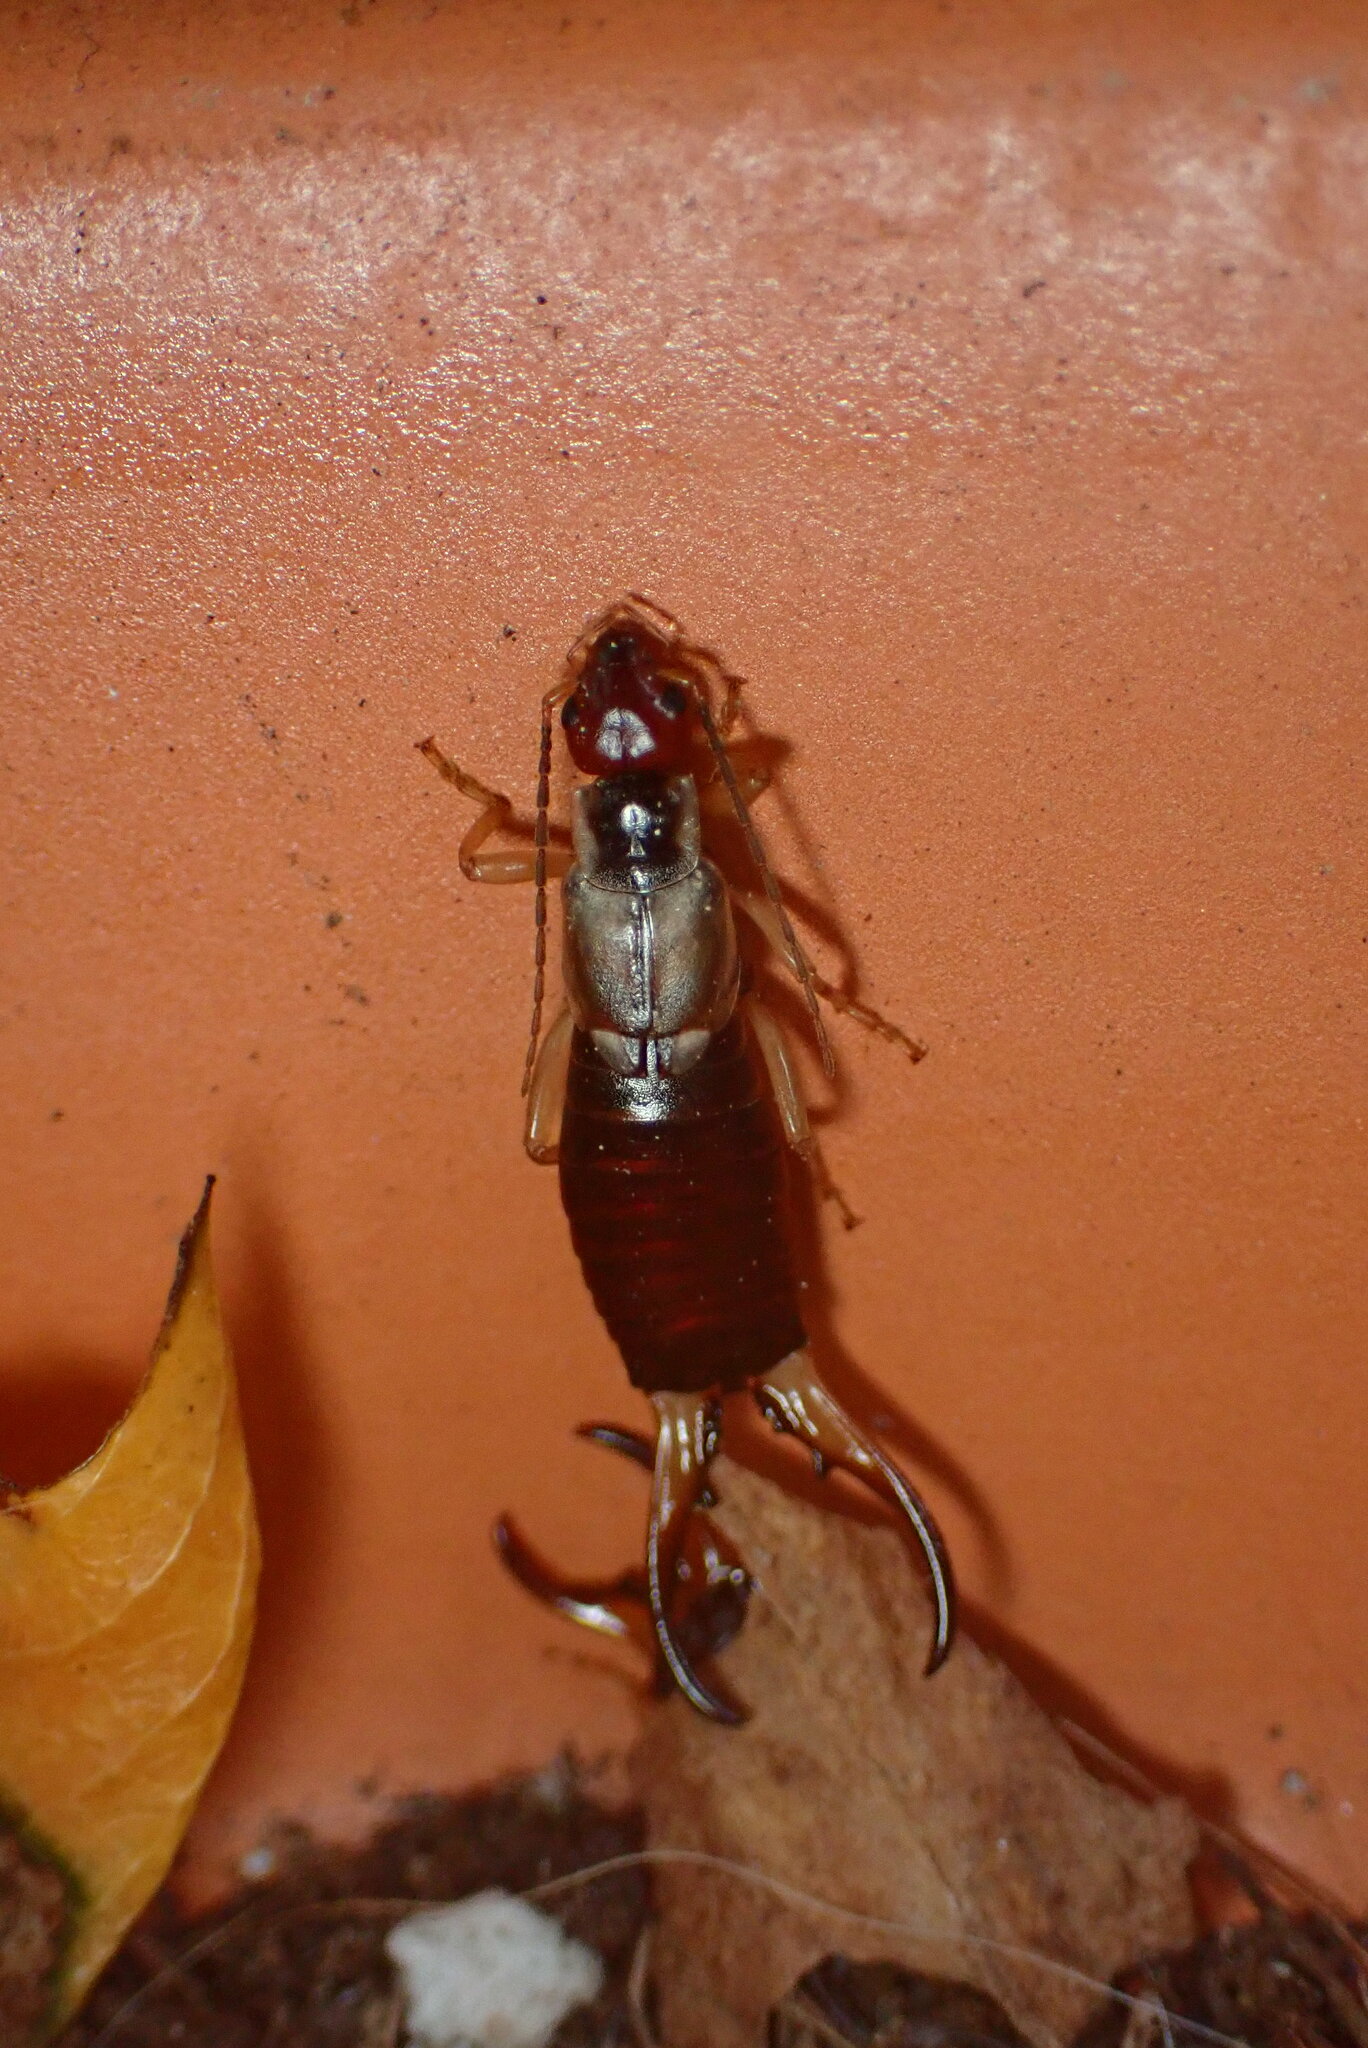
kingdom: Animalia
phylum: Arthropoda
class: Insecta
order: Dermaptera
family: Forficulidae
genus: Forficula
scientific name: Forficula
